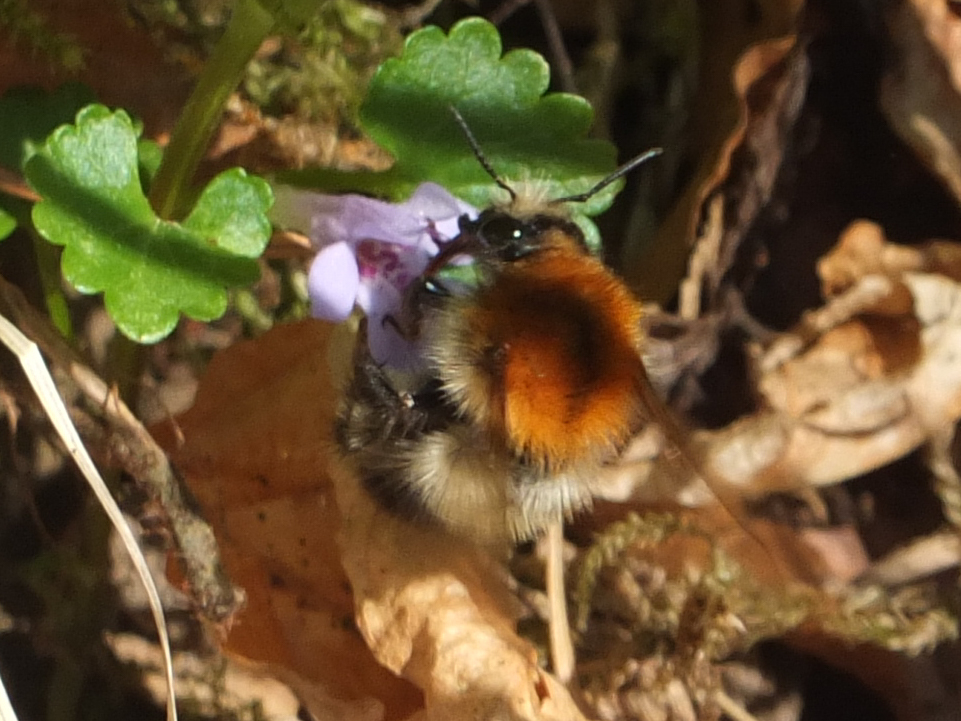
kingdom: Animalia
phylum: Arthropoda
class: Insecta
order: Hymenoptera
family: Apidae
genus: Bombus
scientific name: Bombus pascuorum
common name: Common carder bee
